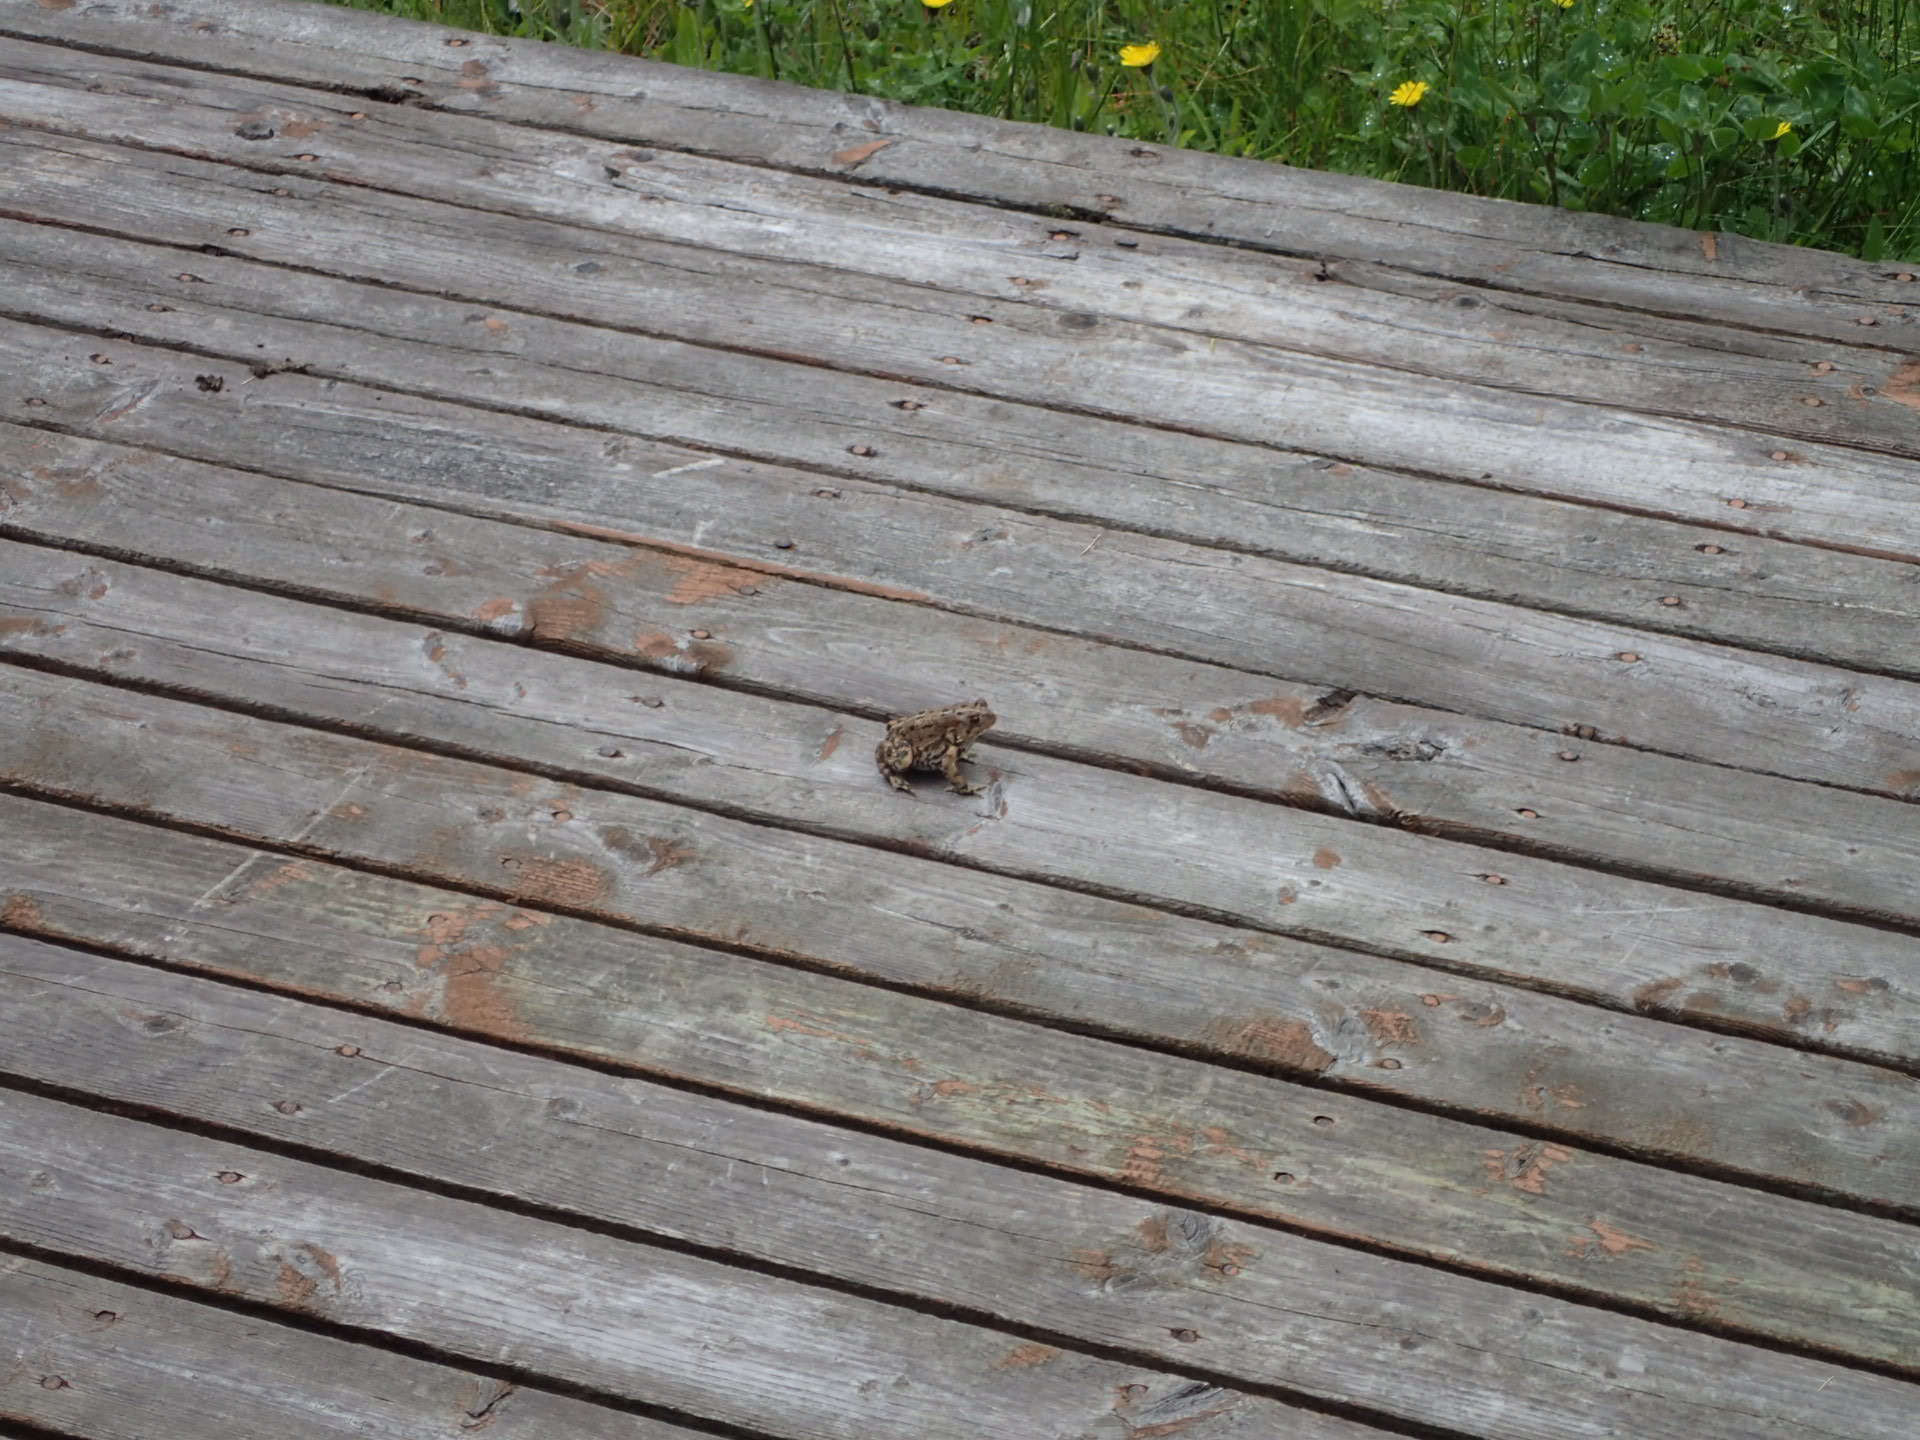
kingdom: Animalia
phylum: Chordata
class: Amphibia
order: Anura
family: Bufonidae
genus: Anaxyrus
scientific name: Anaxyrus americanus
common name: American toad
